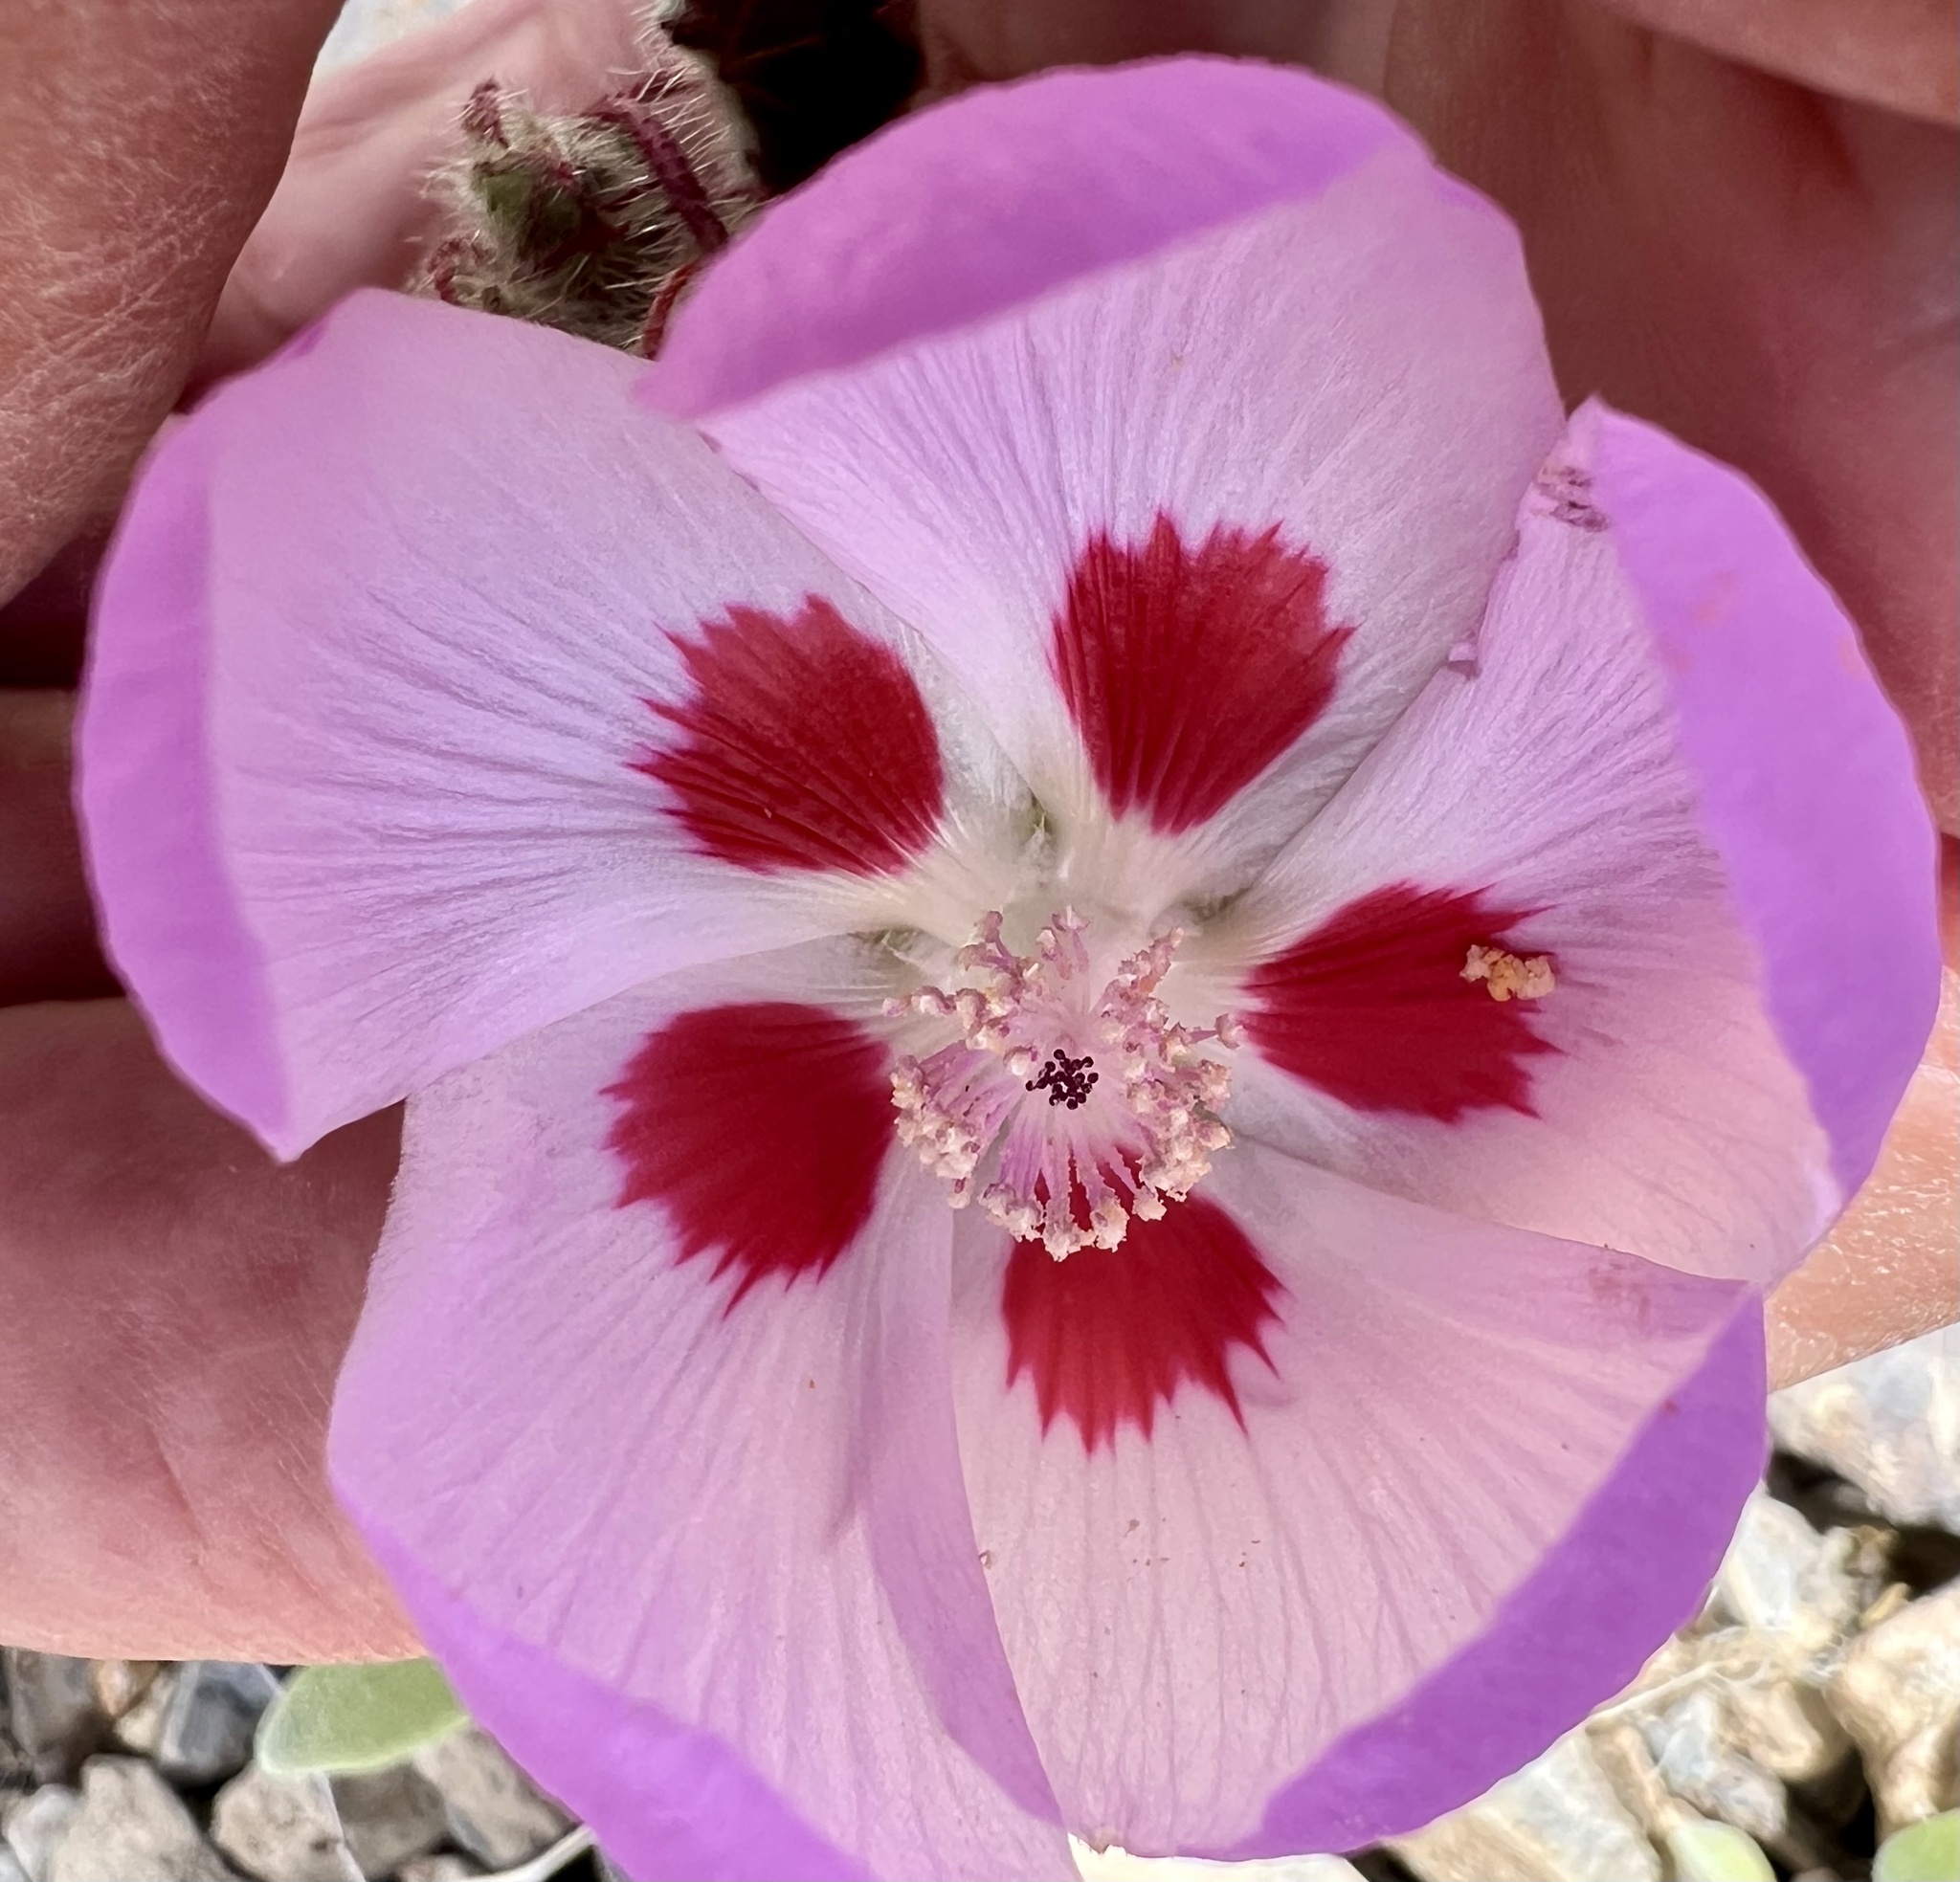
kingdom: Plantae
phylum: Tracheophyta
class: Magnoliopsida
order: Malvales
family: Malvaceae
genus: Eremalche
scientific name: Eremalche rotundifolia
